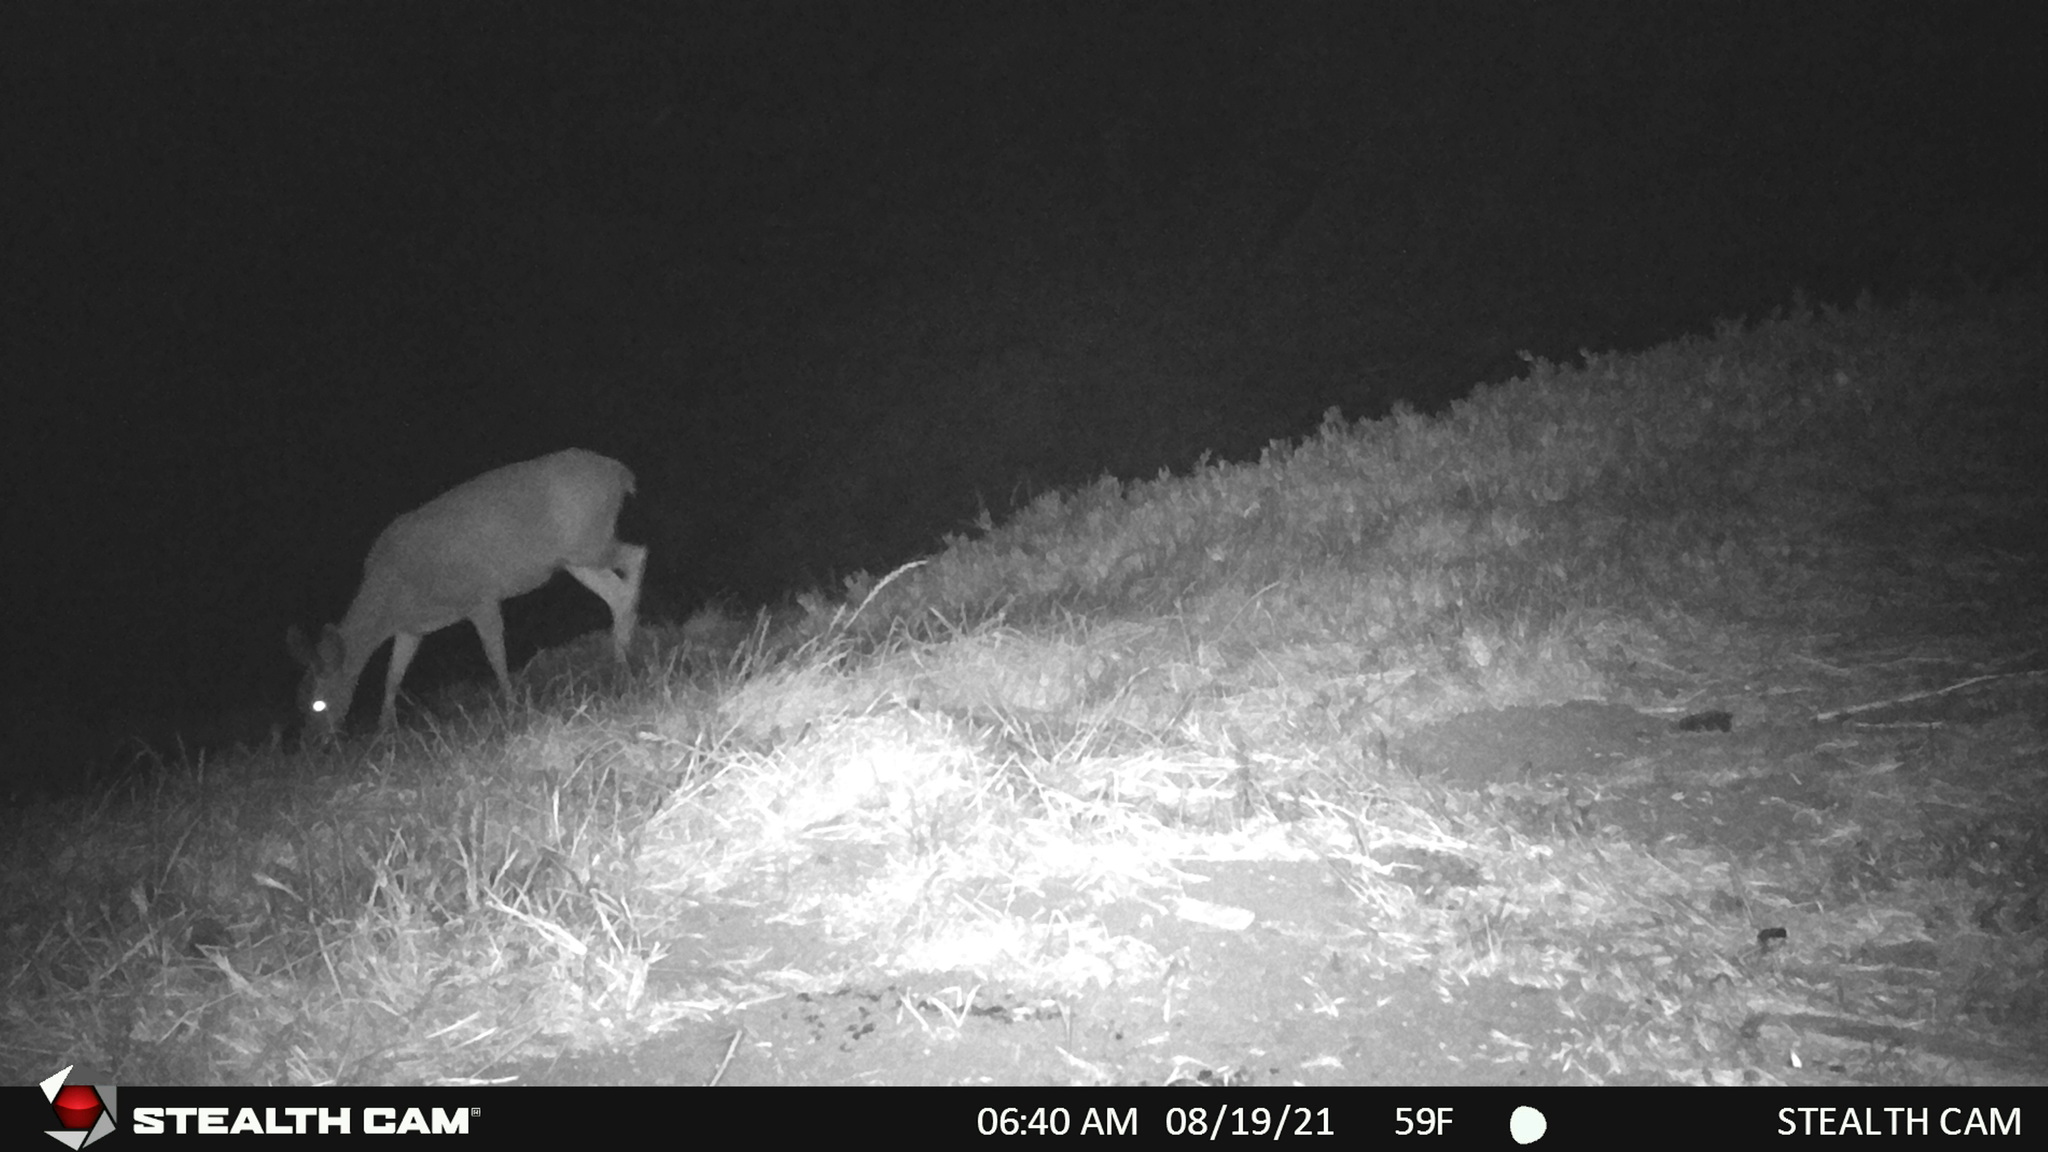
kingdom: Animalia
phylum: Chordata
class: Mammalia
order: Artiodactyla
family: Cervidae
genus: Odocoileus
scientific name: Odocoileus hemionus
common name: Mule deer
